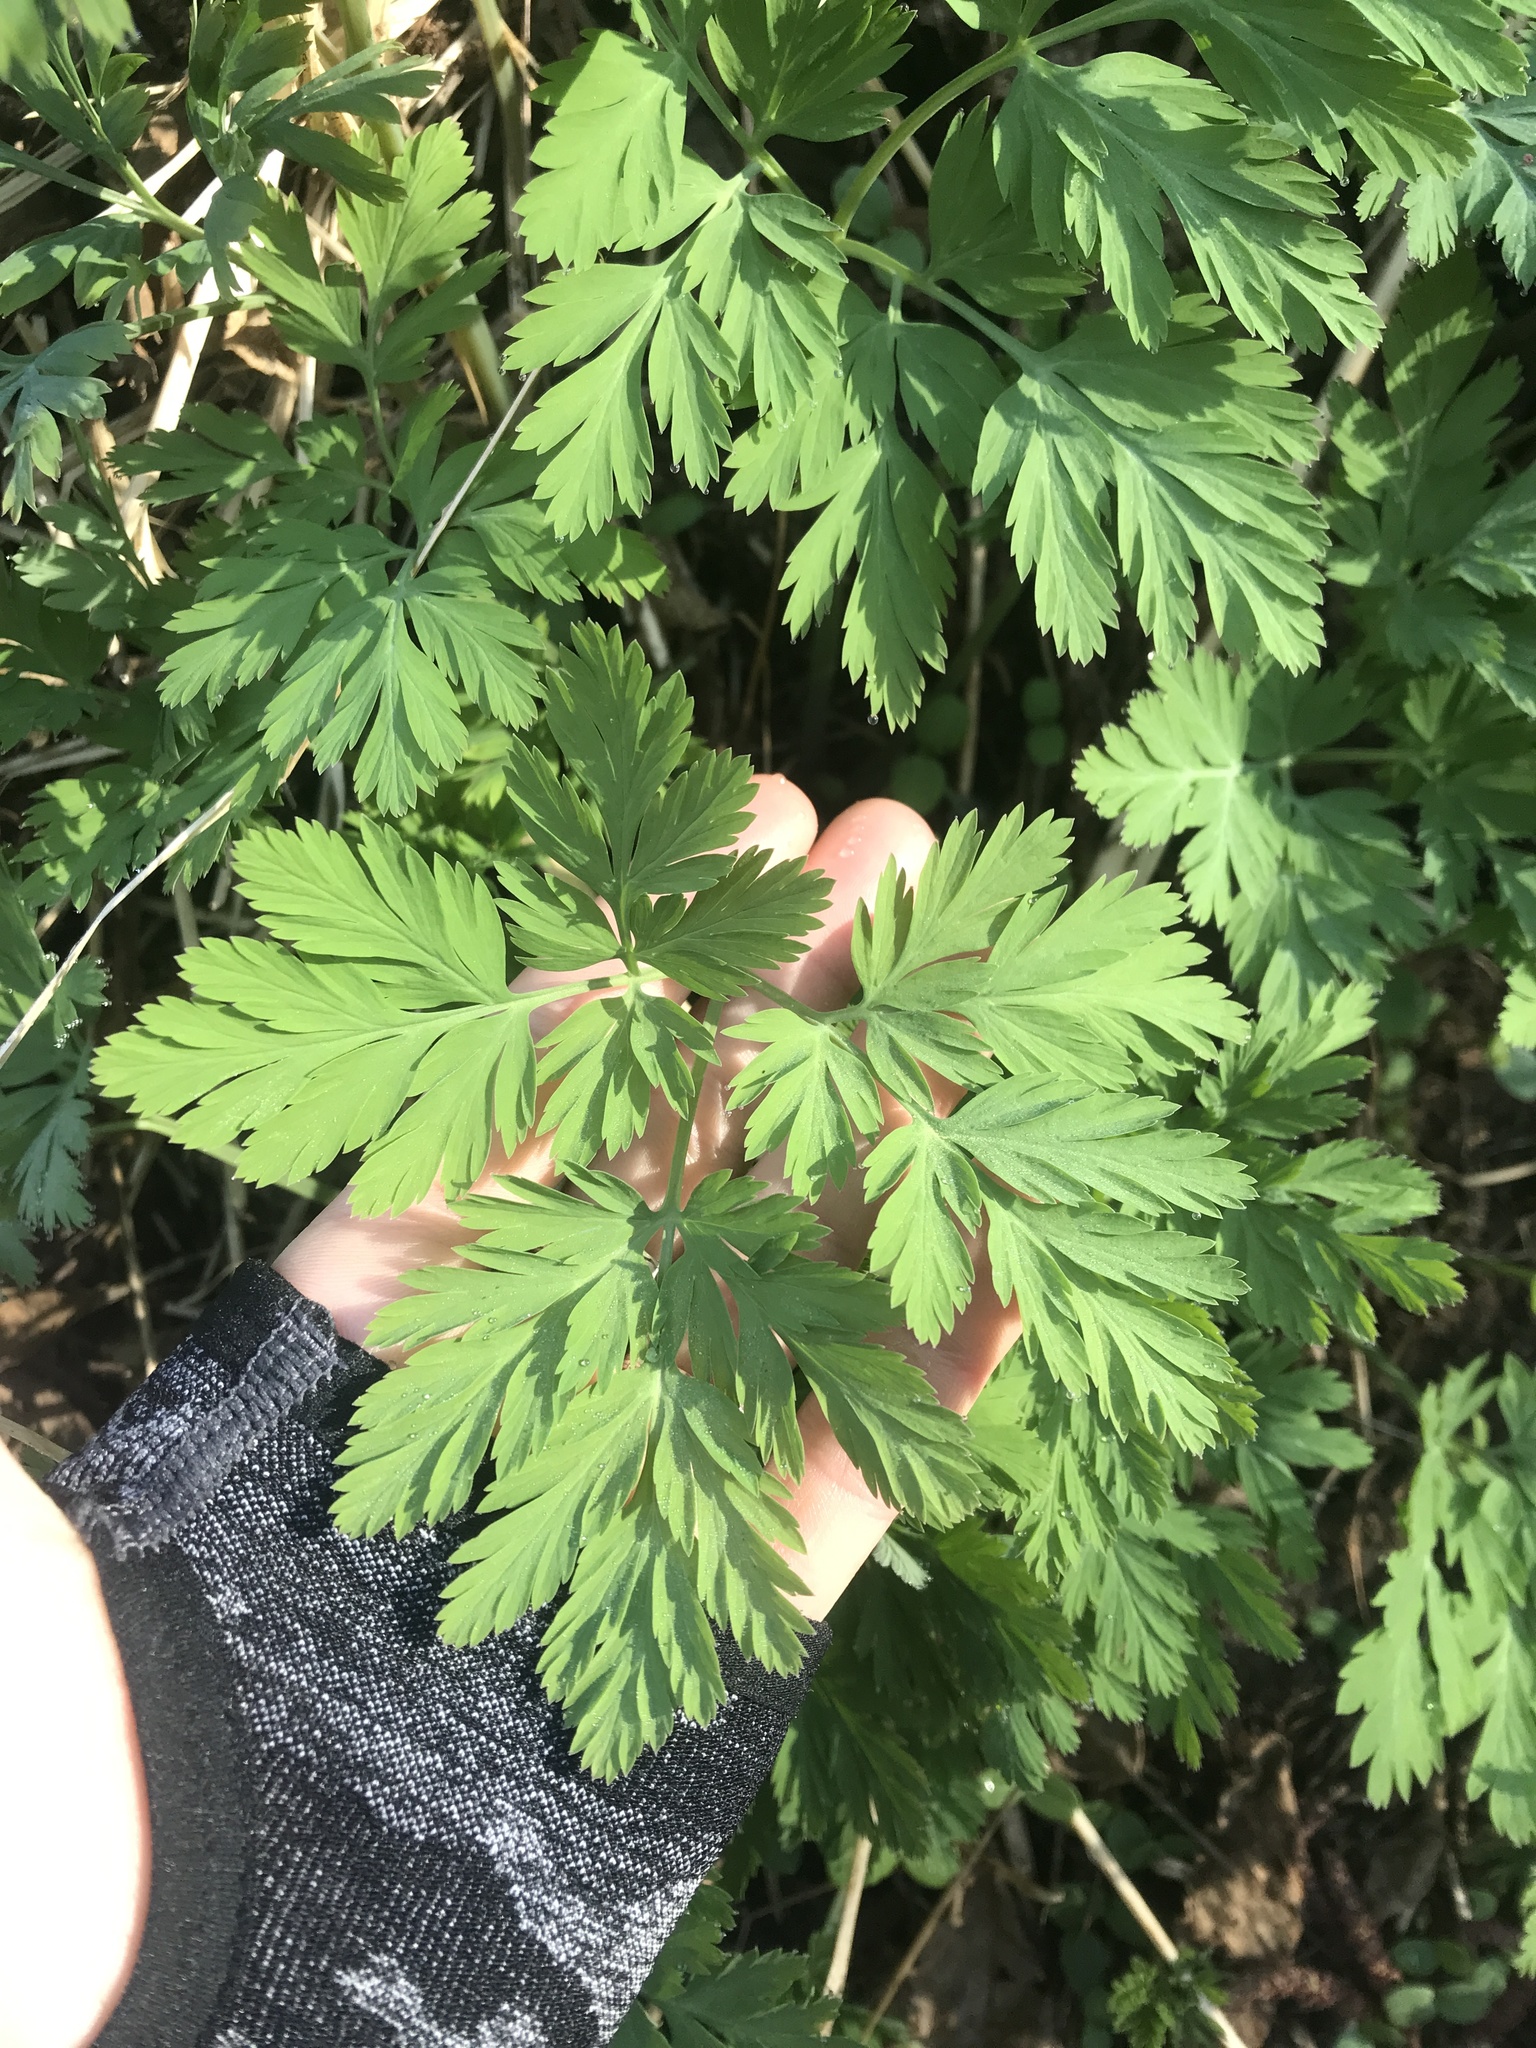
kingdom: Plantae
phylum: Tracheophyta
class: Magnoliopsida
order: Ranunculales
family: Papaveraceae
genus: Dicentra
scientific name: Dicentra formosa
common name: Bleeding-heart
